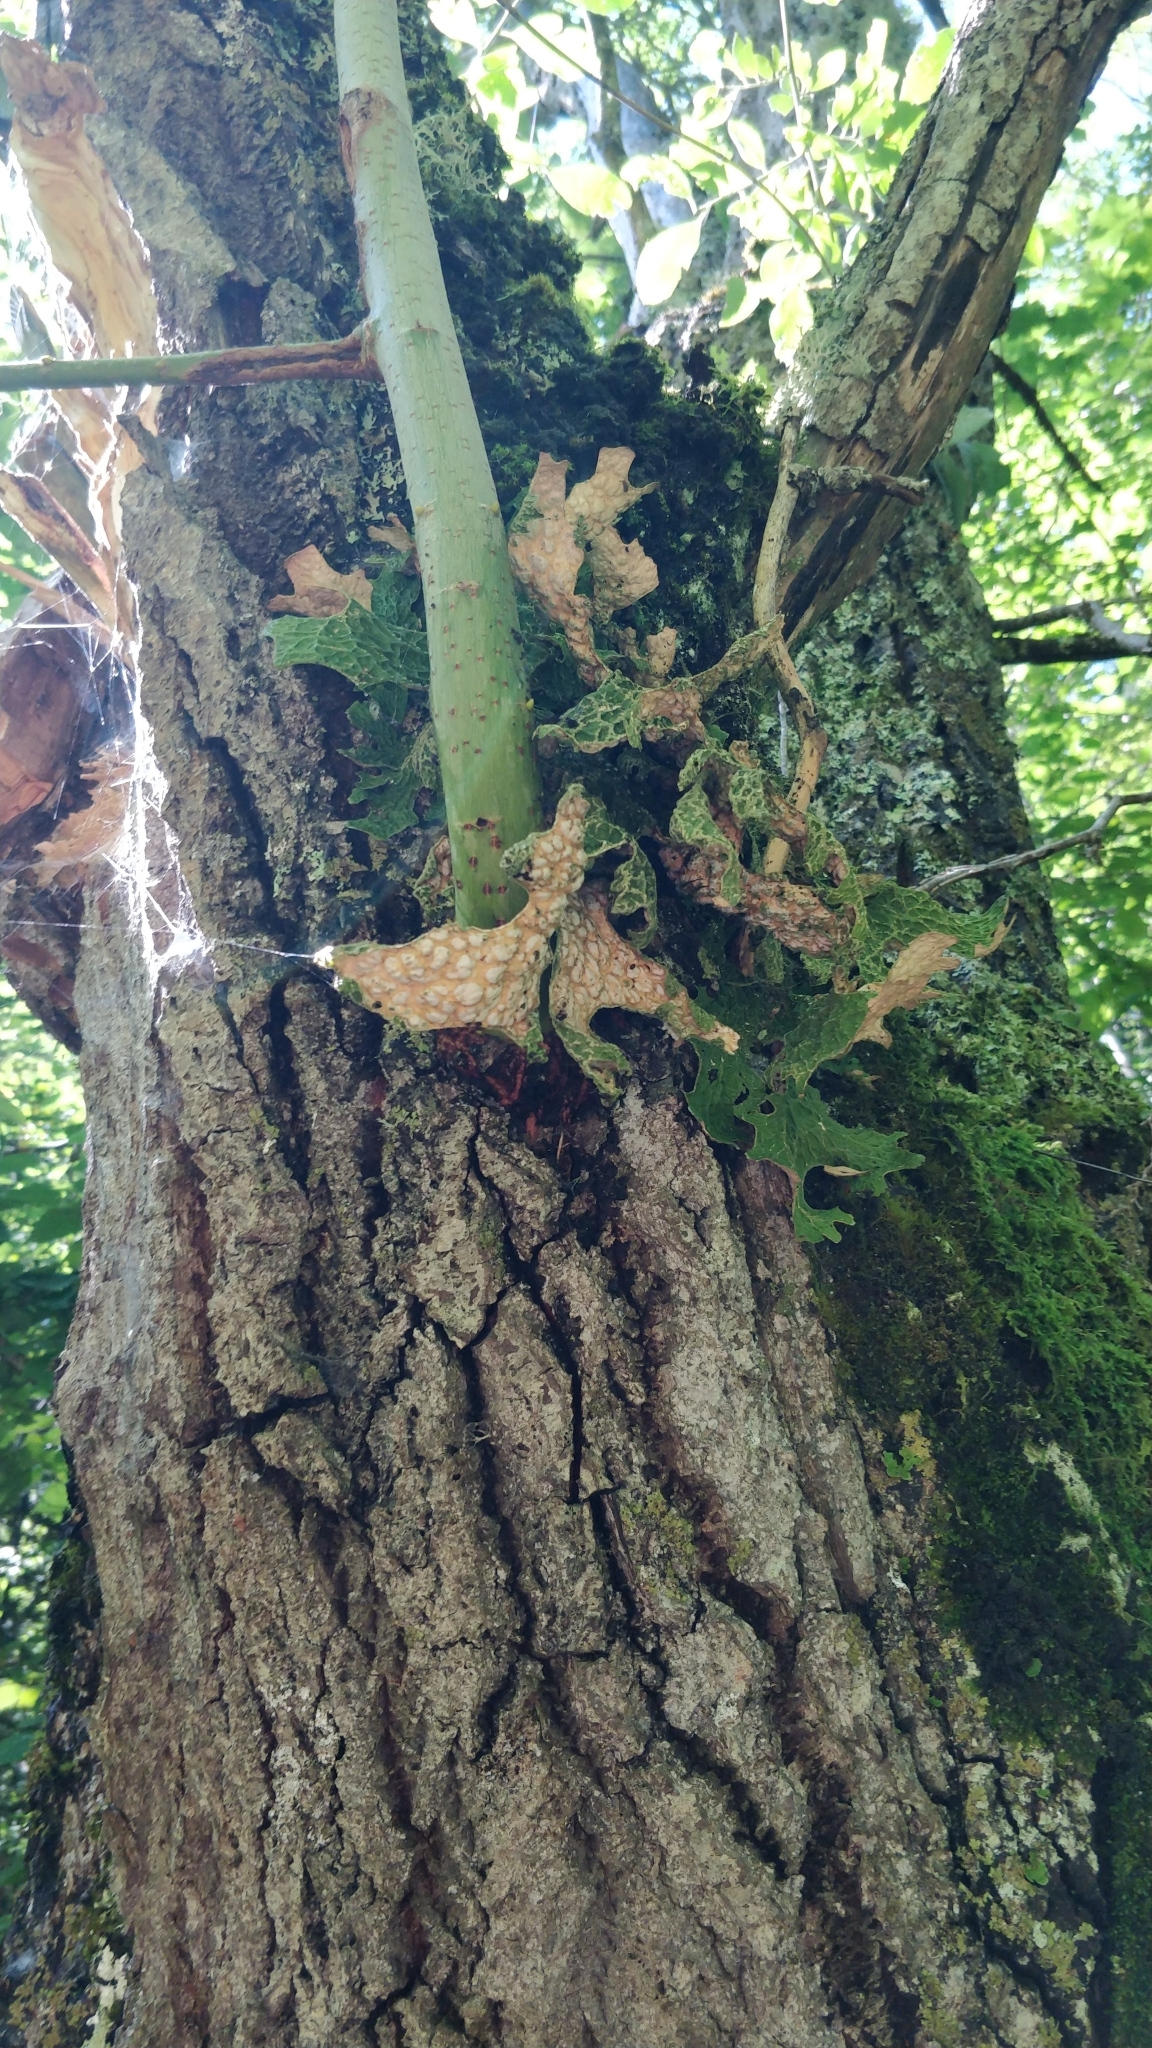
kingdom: Fungi
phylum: Ascomycota
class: Lecanoromycetes
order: Peltigerales
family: Lobariaceae
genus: Lobaria
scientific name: Lobaria pulmonaria
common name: Lungwort
